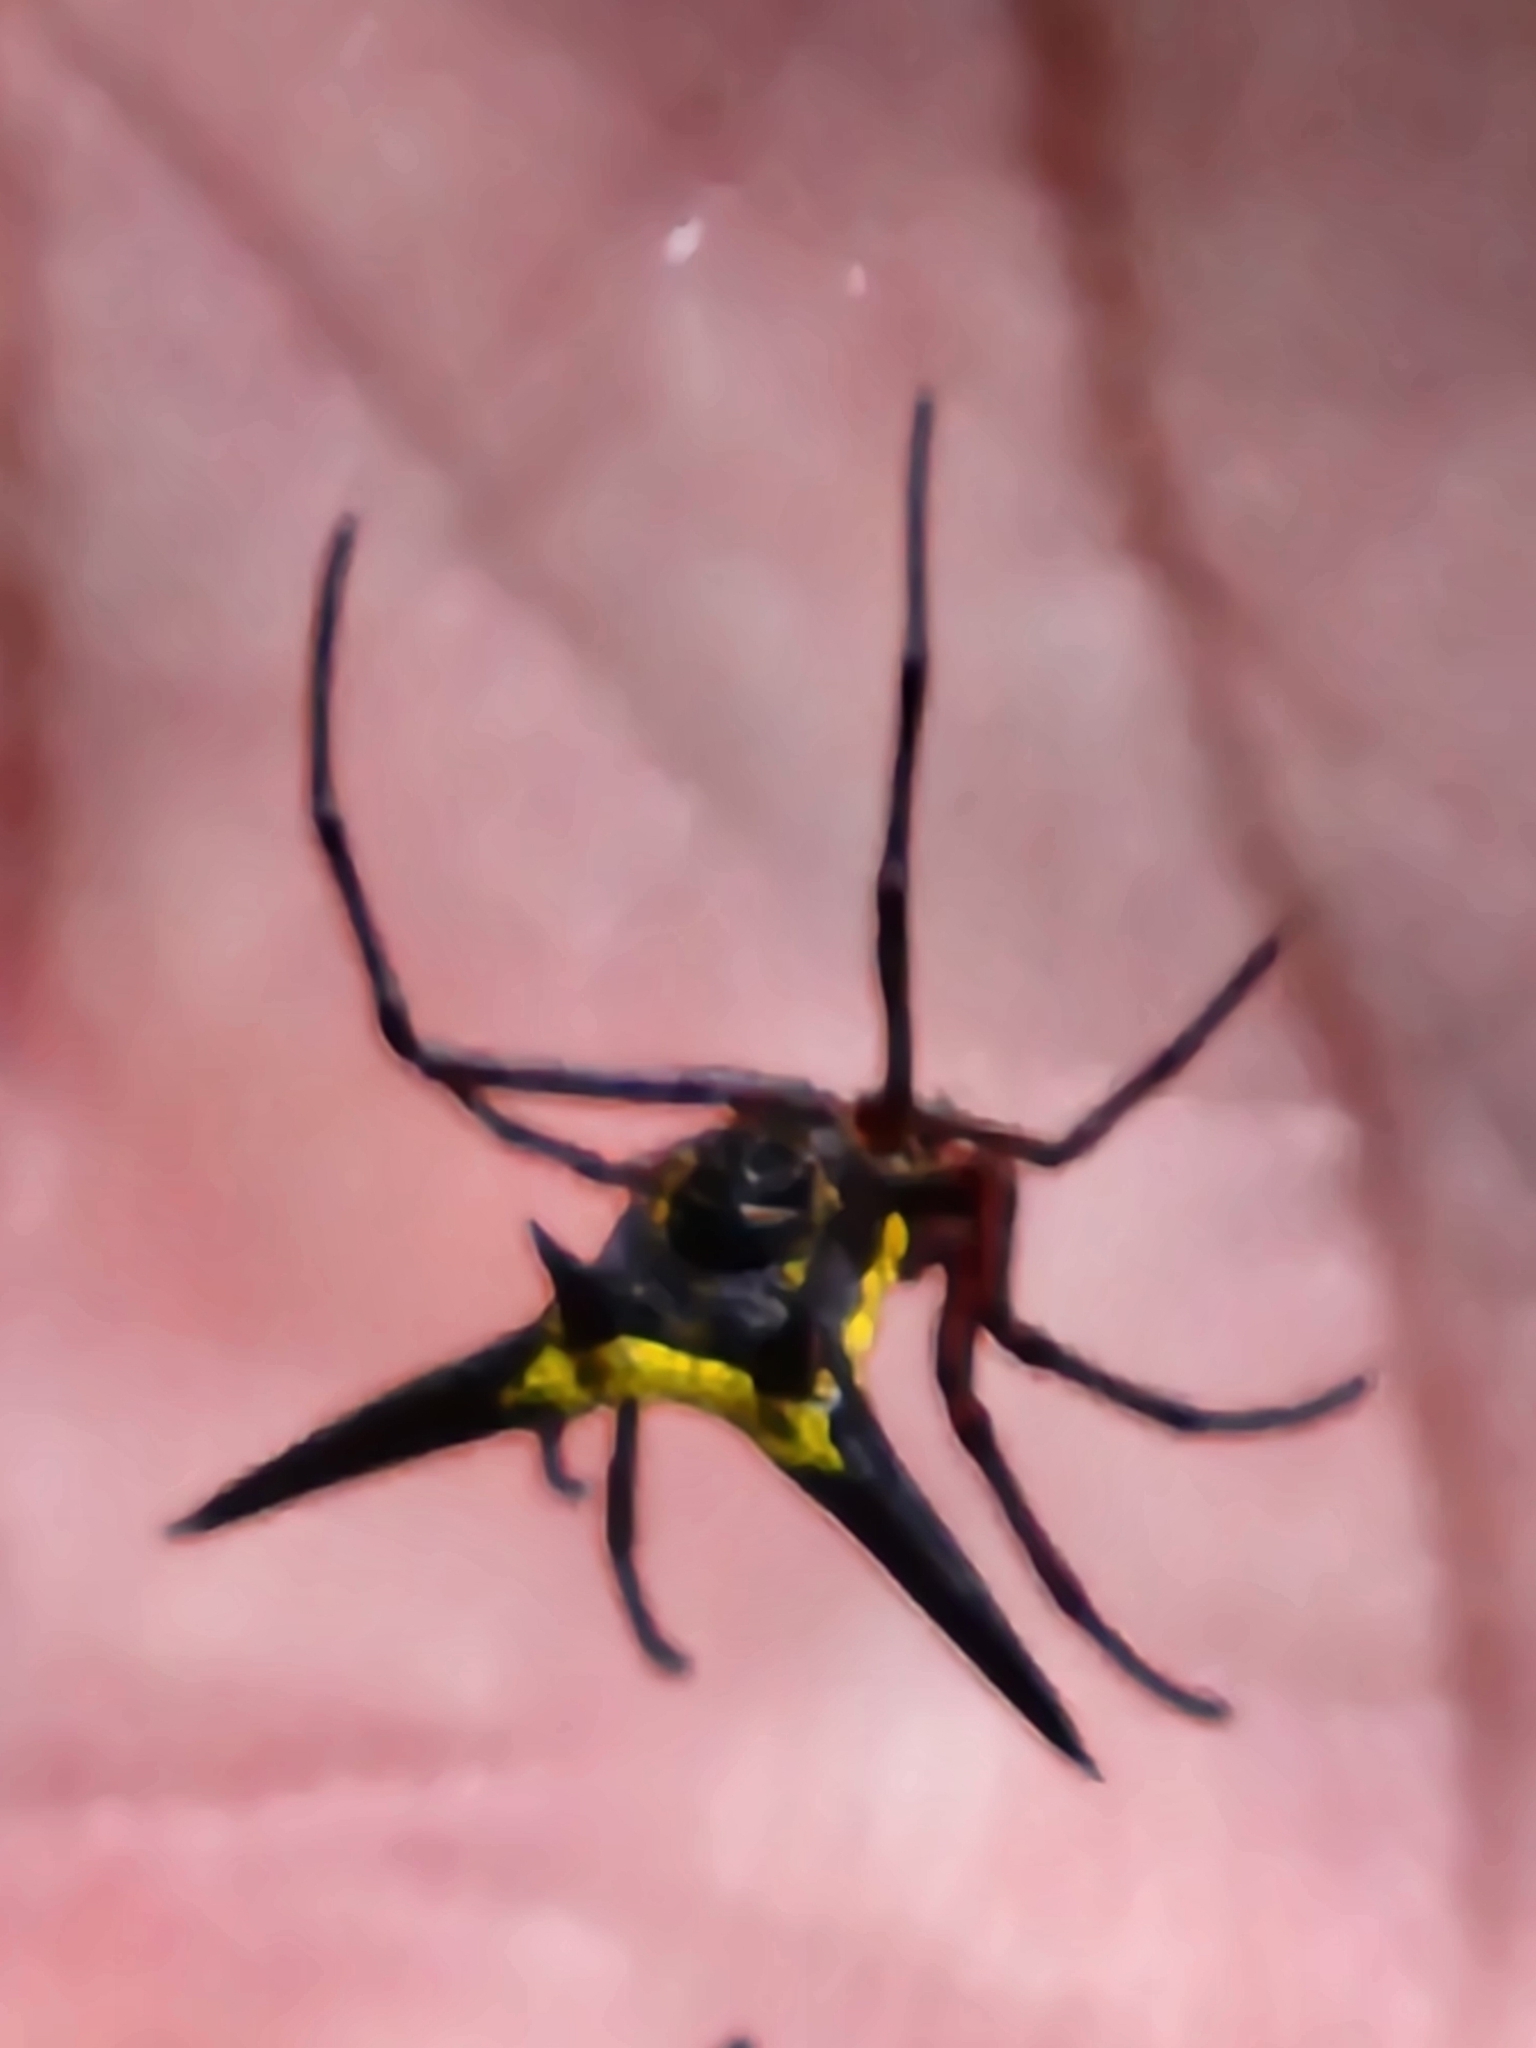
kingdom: Animalia
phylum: Arthropoda
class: Arachnida
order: Araneae
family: Araneidae
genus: Micrathena
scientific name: Micrathena kochalkai
